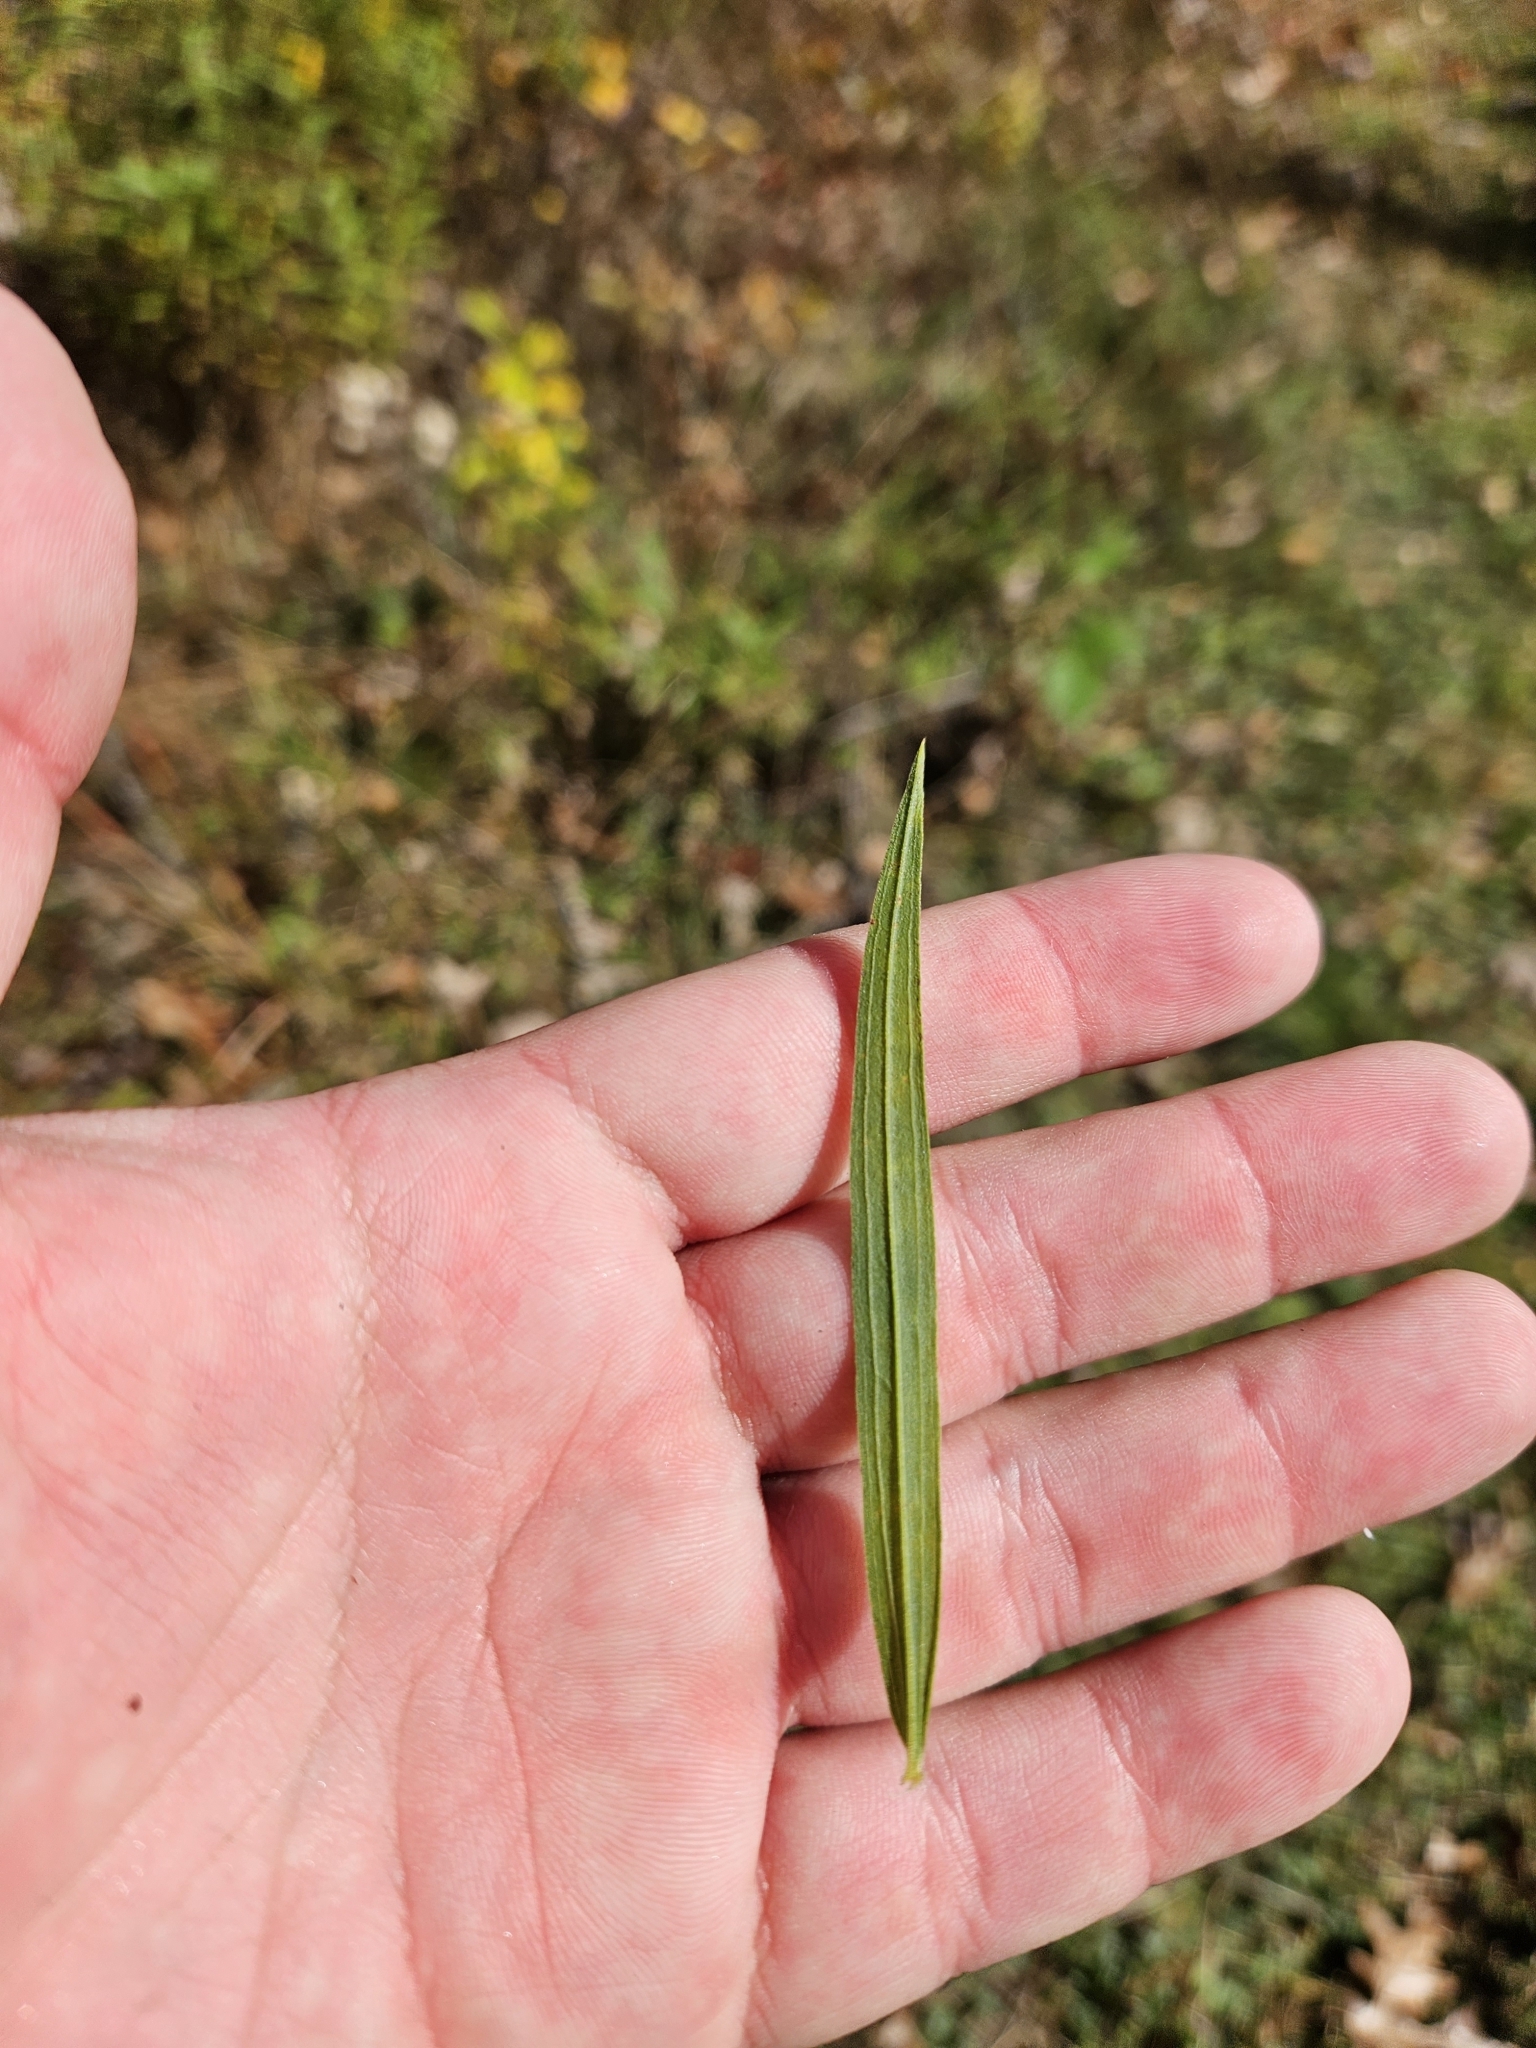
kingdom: Plantae
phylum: Tracheophyta
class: Magnoliopsida
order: Asterales
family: Asteraceae
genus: Euthamia
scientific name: Euthamia graminifolia
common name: Common goldentop
